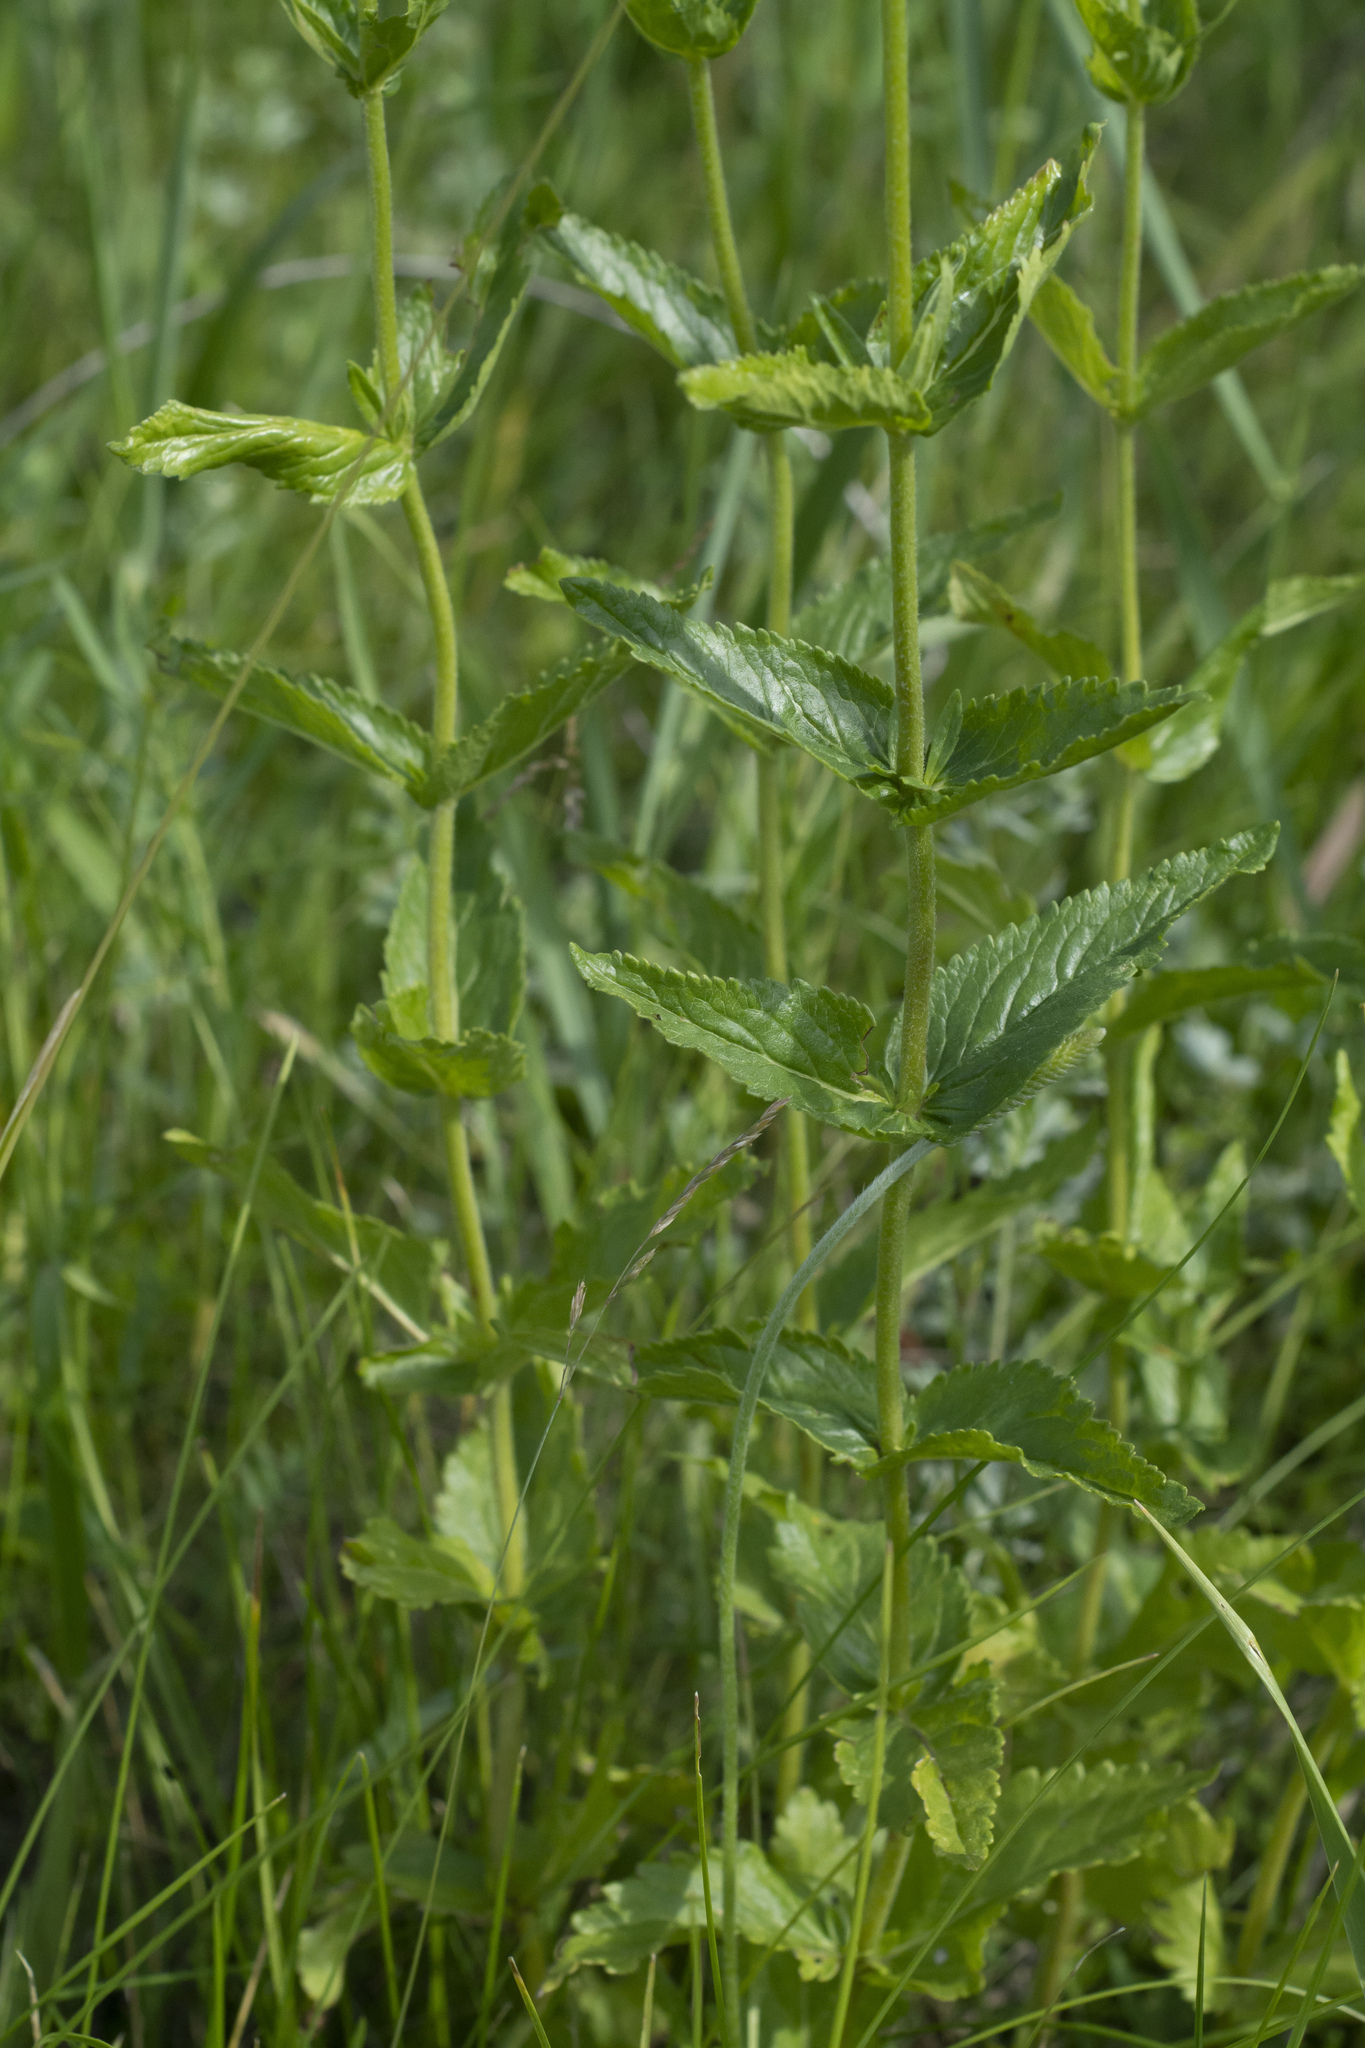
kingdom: Plantae
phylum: Tracheophyta
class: Magnoliopsida
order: Lamiales
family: Plantaginaceae
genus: Veronica
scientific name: Veronica teucrium
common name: Large speedwell
